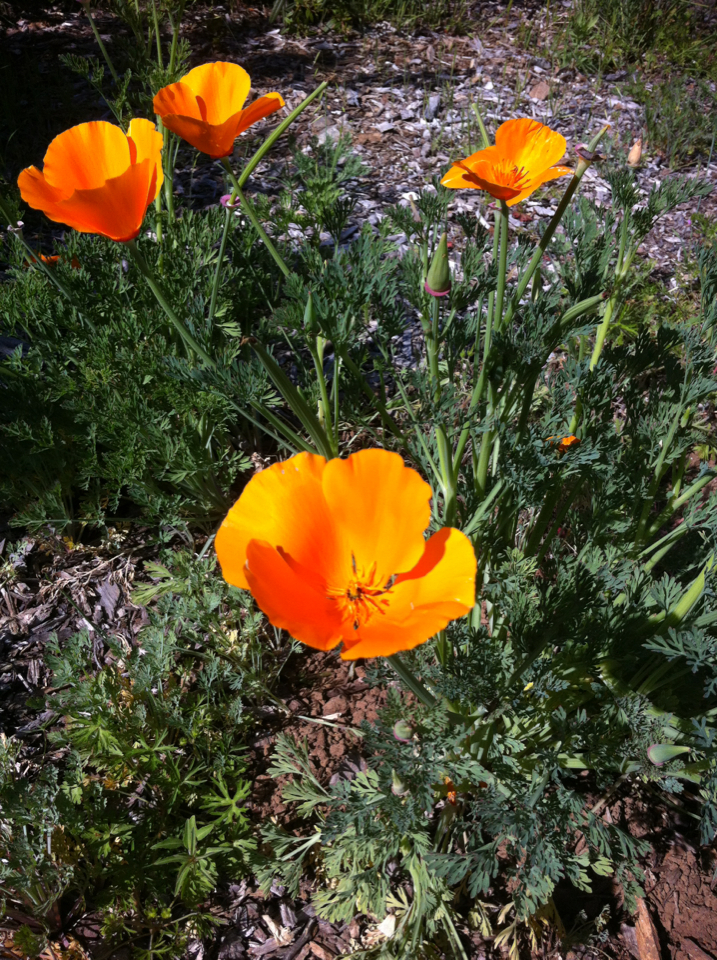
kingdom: Plantae
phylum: Tracheophyta
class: Magnoliopsida
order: Ranunculales
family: Papaveraceae
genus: Eschscholzia
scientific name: Eschscholzia californica
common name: California poppy
